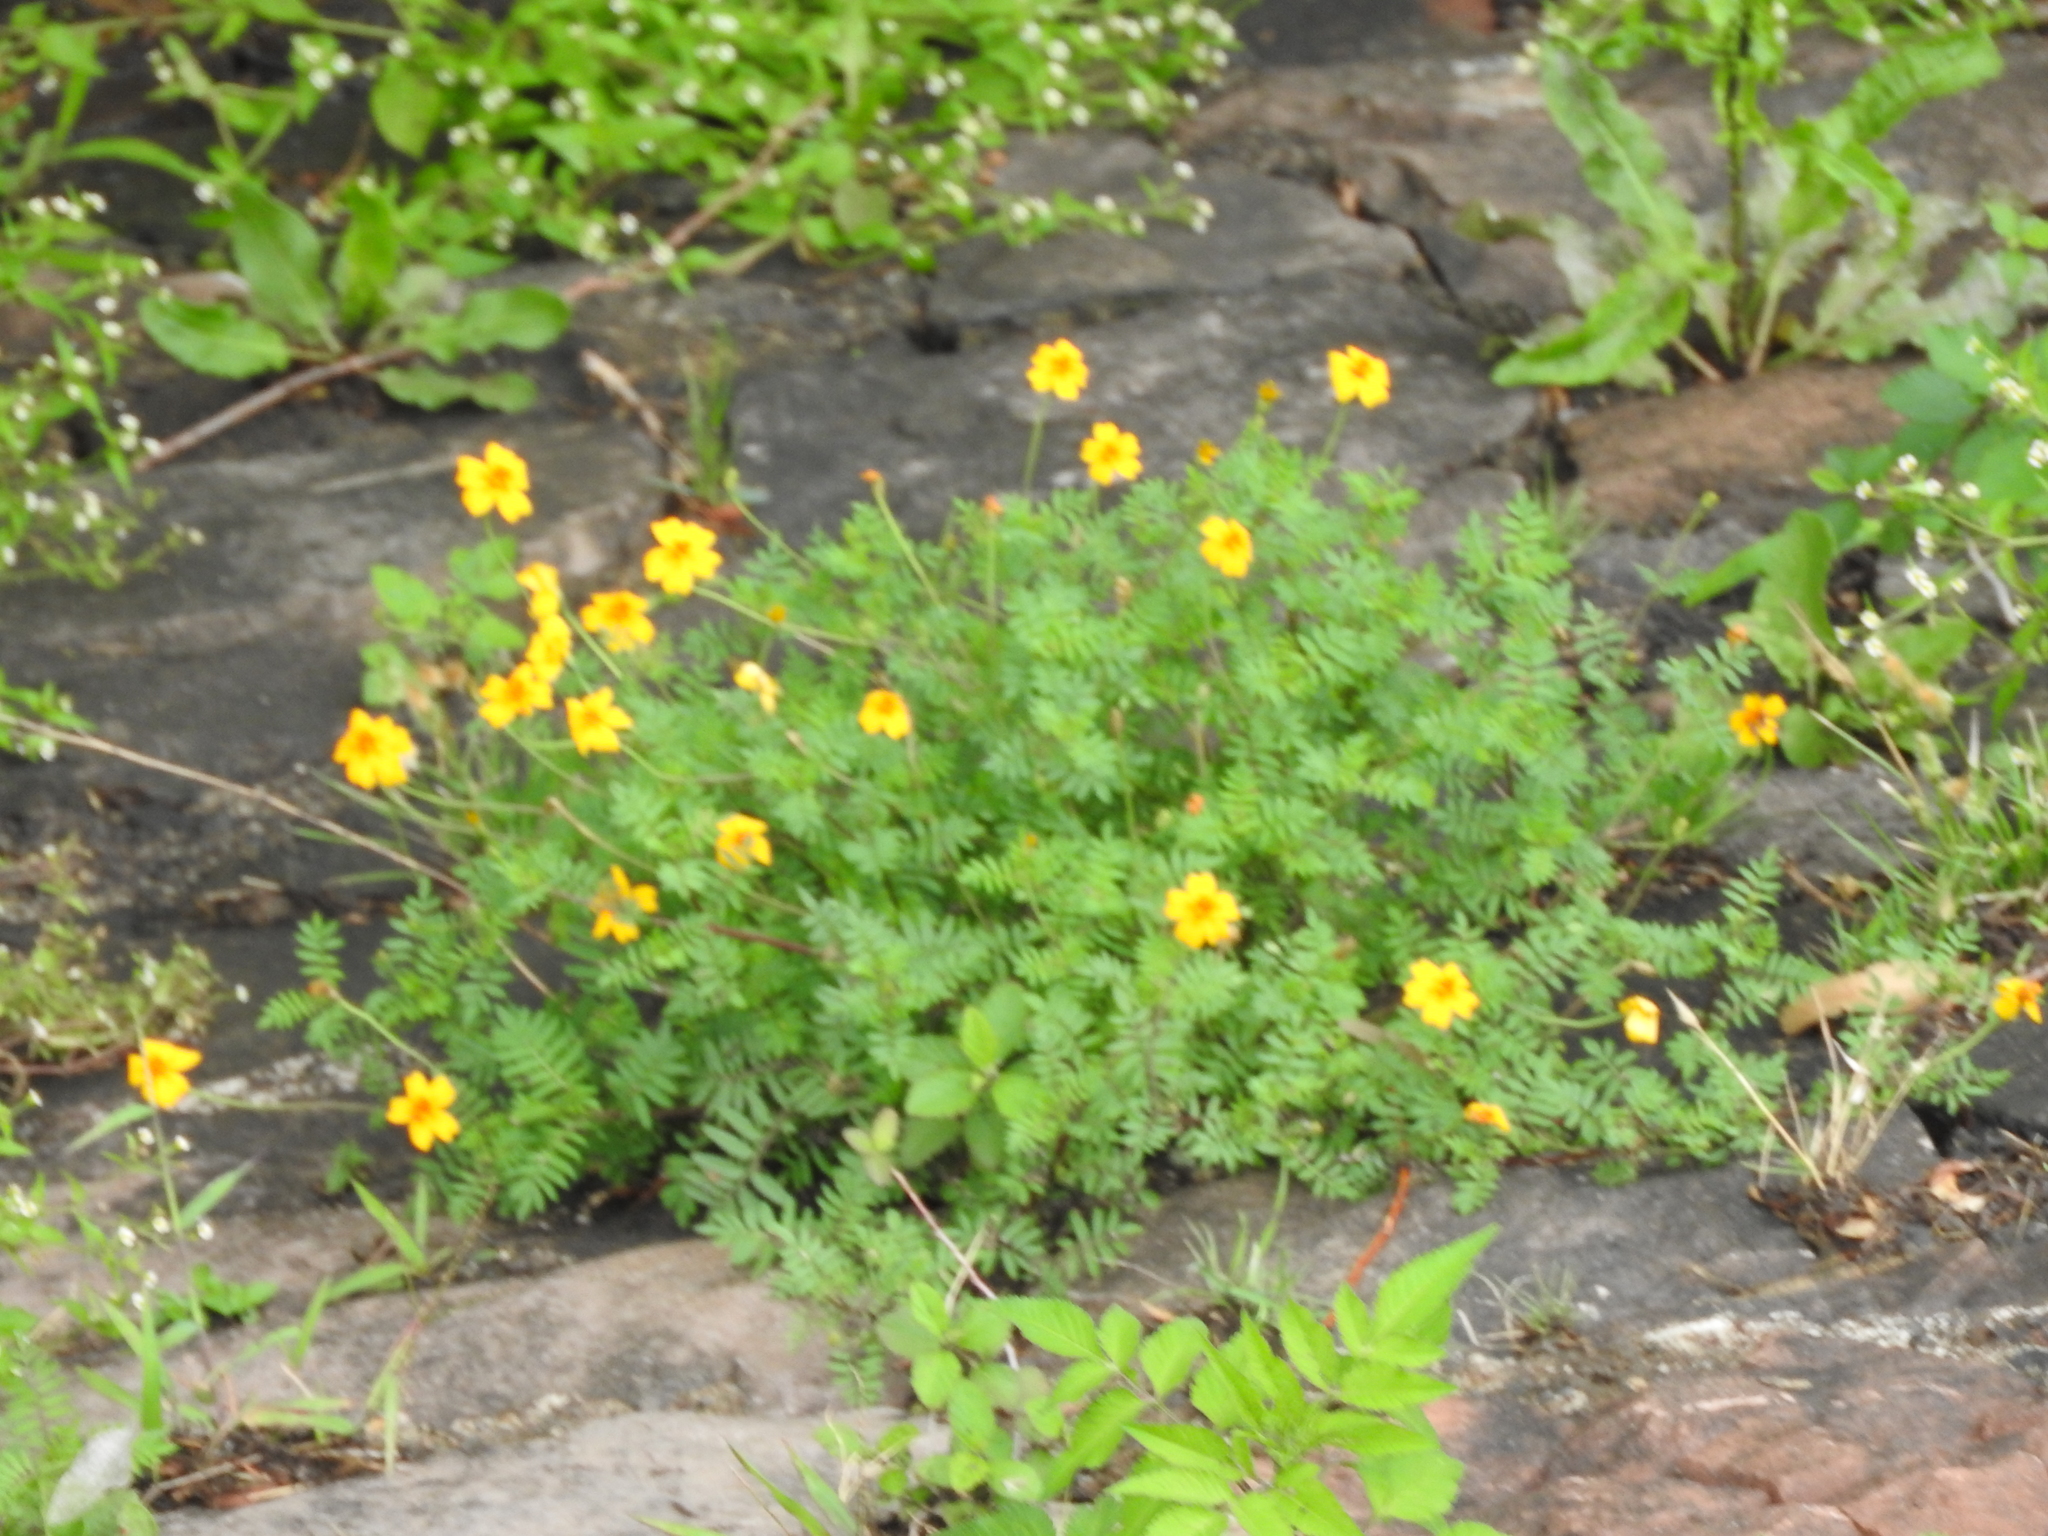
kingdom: Plantae
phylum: Tracheophyta
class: Magnoliopsida
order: Asterales
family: Asteraceae
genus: Tagetes
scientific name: Tagetes tenuifolia
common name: Signet marigold
